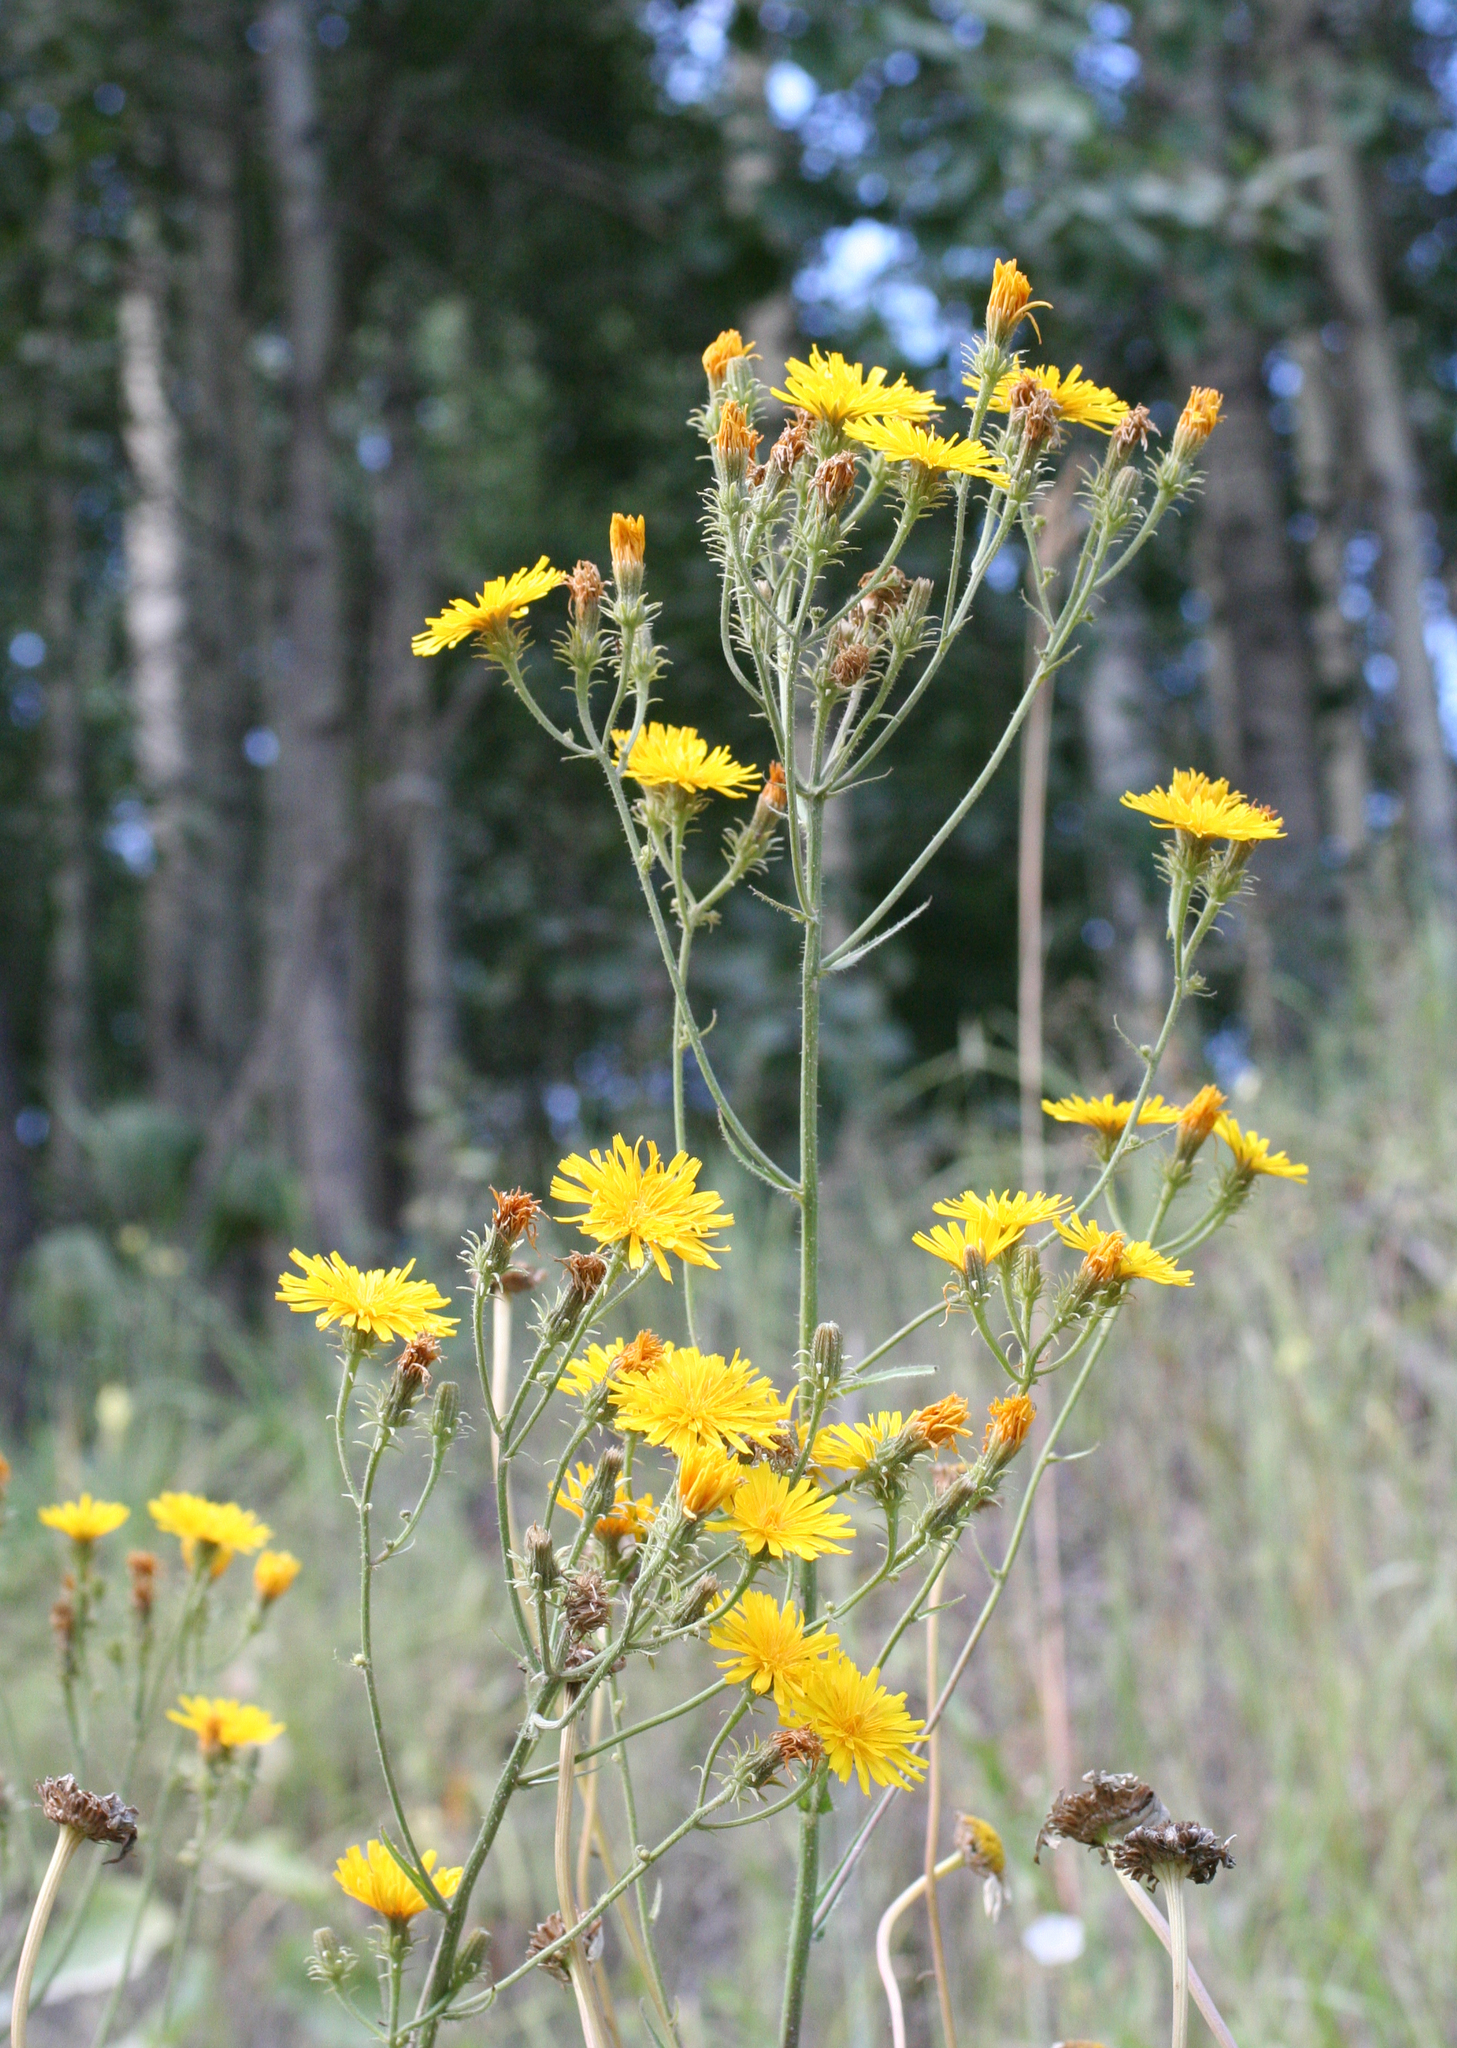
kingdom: Plantae
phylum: Tracheophyta
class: Magnoliopsida
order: Asterales
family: Asteraceae
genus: Picris
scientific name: Picris hieracioides
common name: Hawkweed oxtongue
